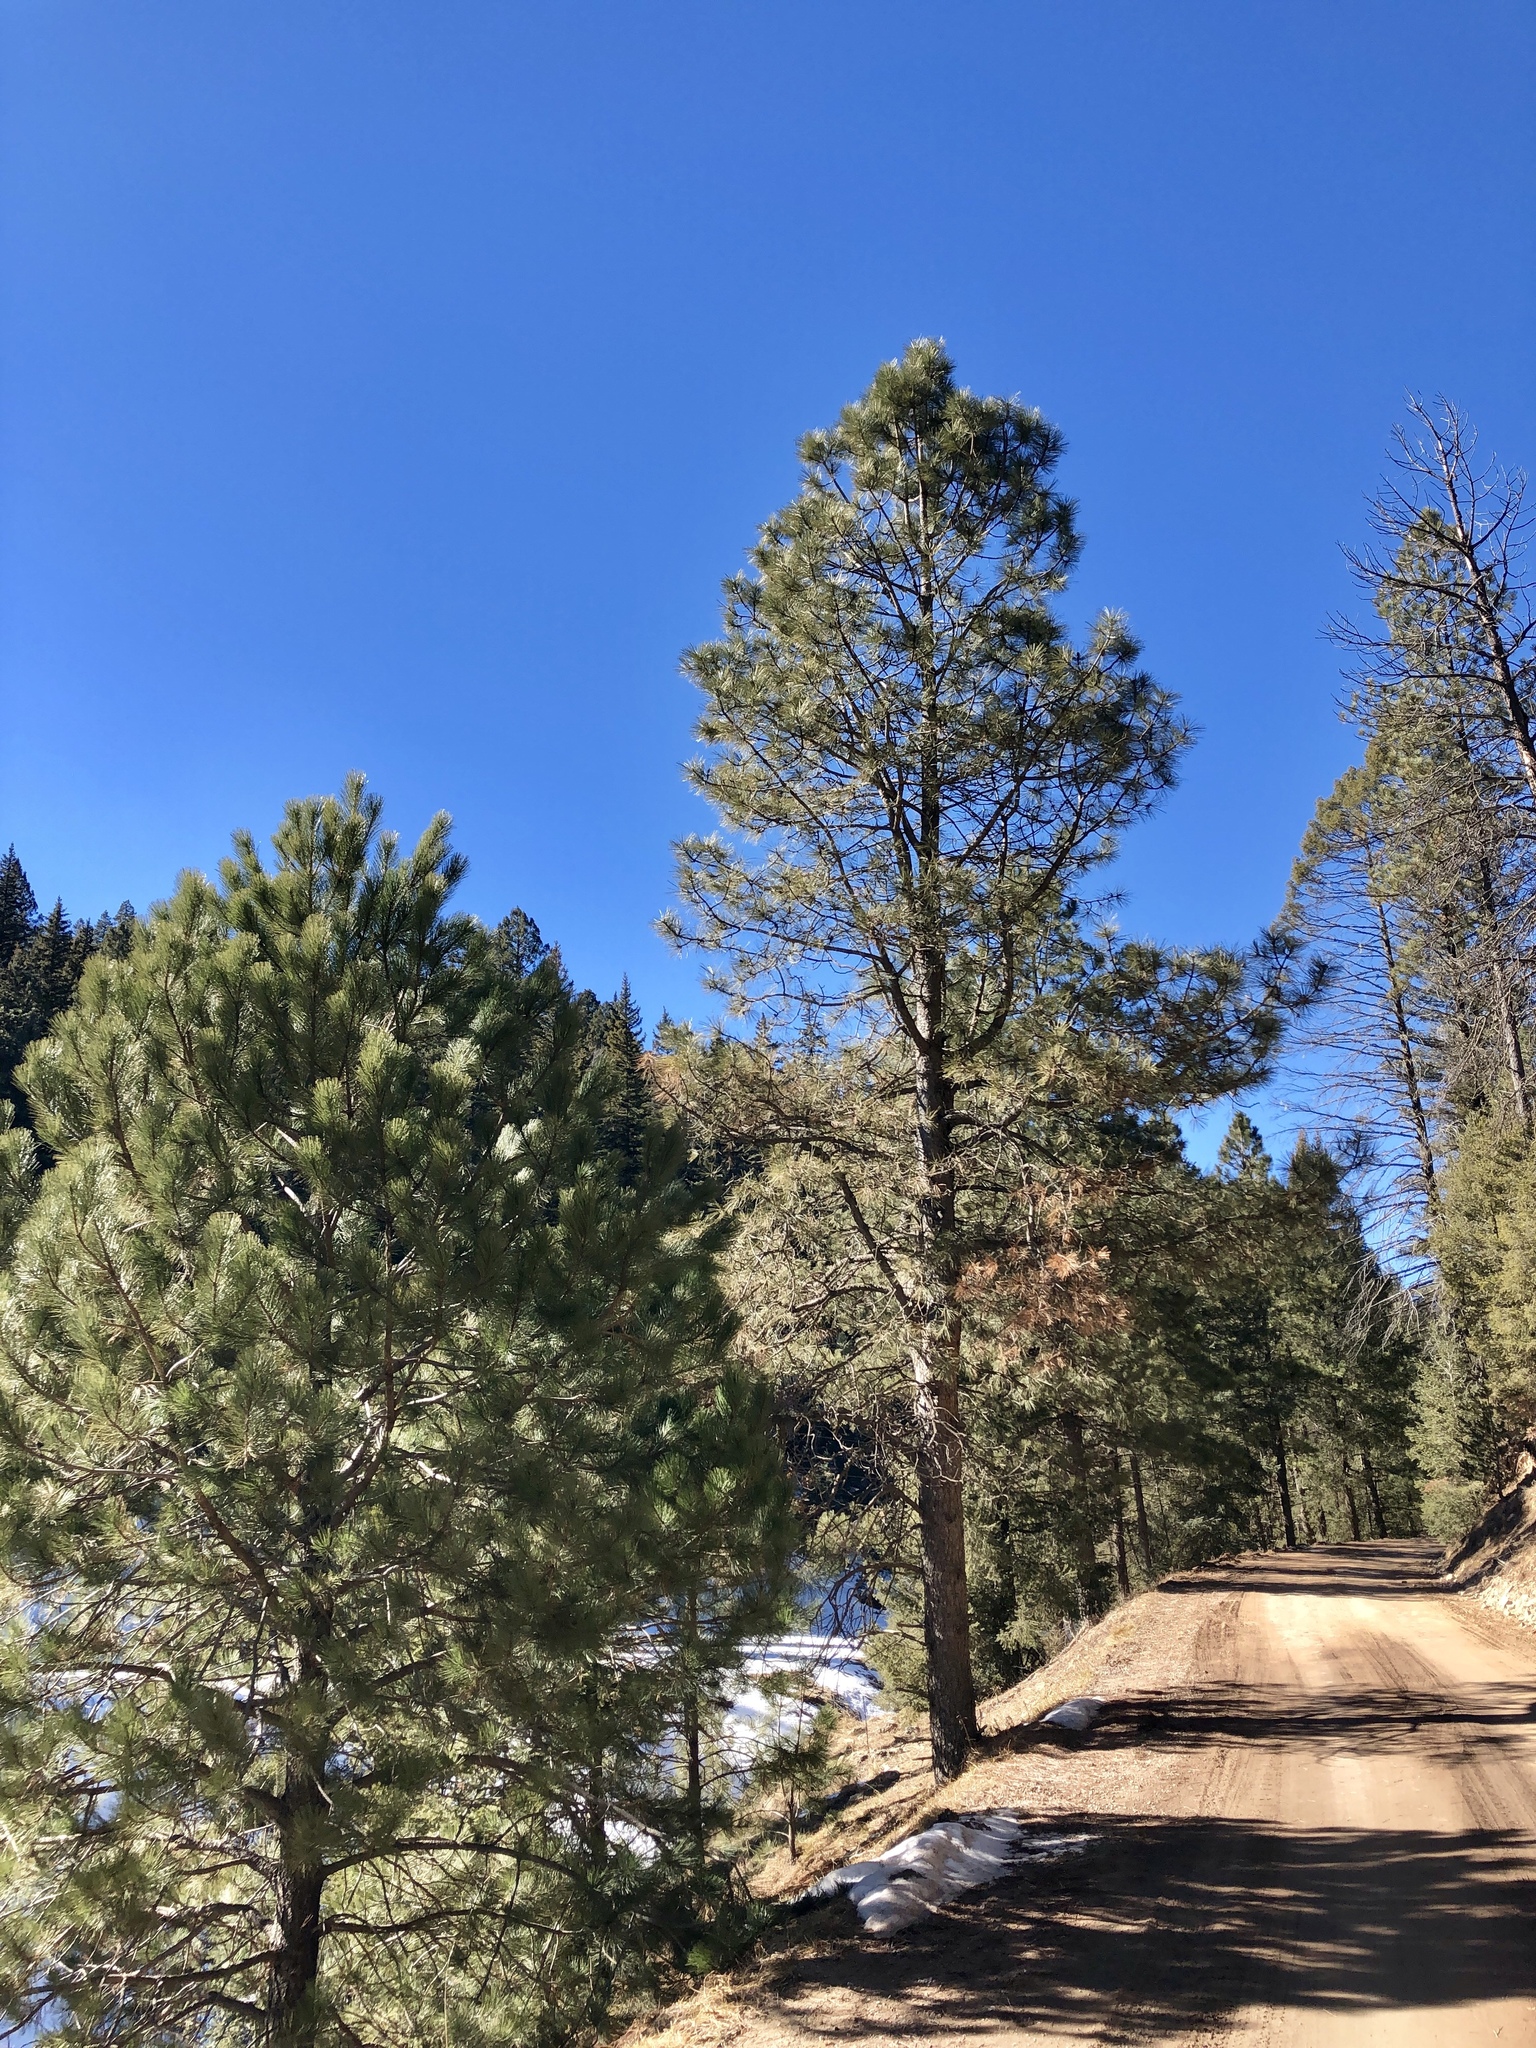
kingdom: Plantae
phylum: Tracheophyta
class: Pinopsida
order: Pinales
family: Pinaceae
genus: Pinus
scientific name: Pinus ponderosa
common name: Western yellow-pine
